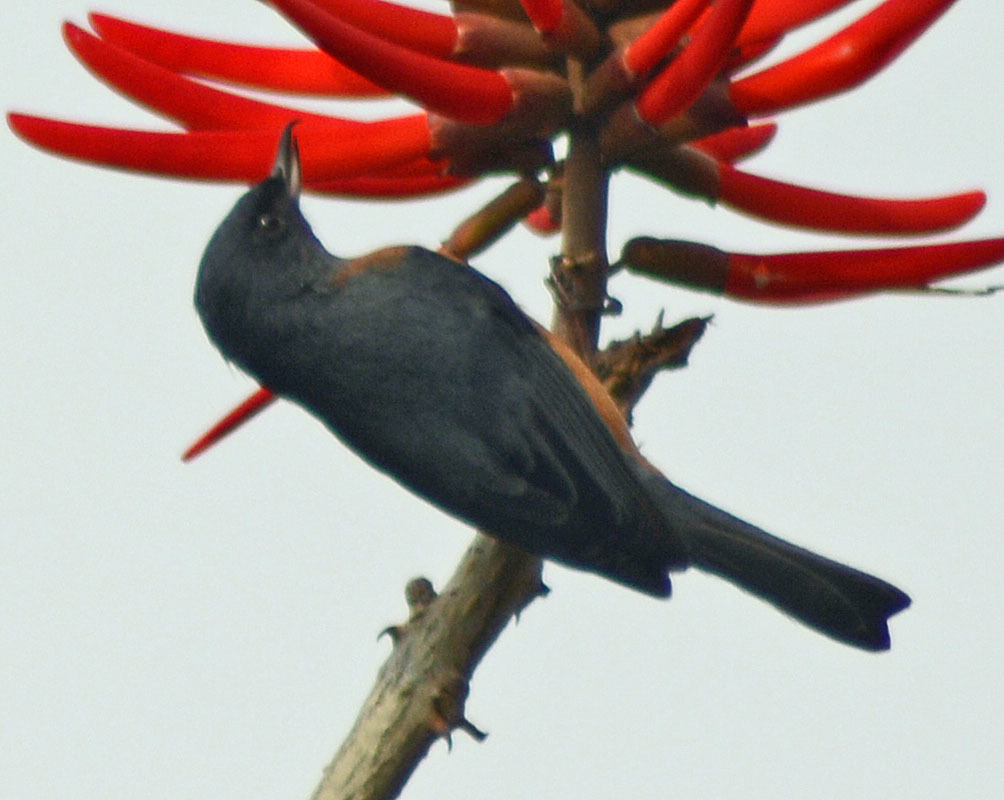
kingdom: Animalia
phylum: Chordata
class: Aves
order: Passeriformes
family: Thraupidae
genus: Diglossa
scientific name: Diglossa baritula
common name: Cinnamon-bellied flowerpiercer
